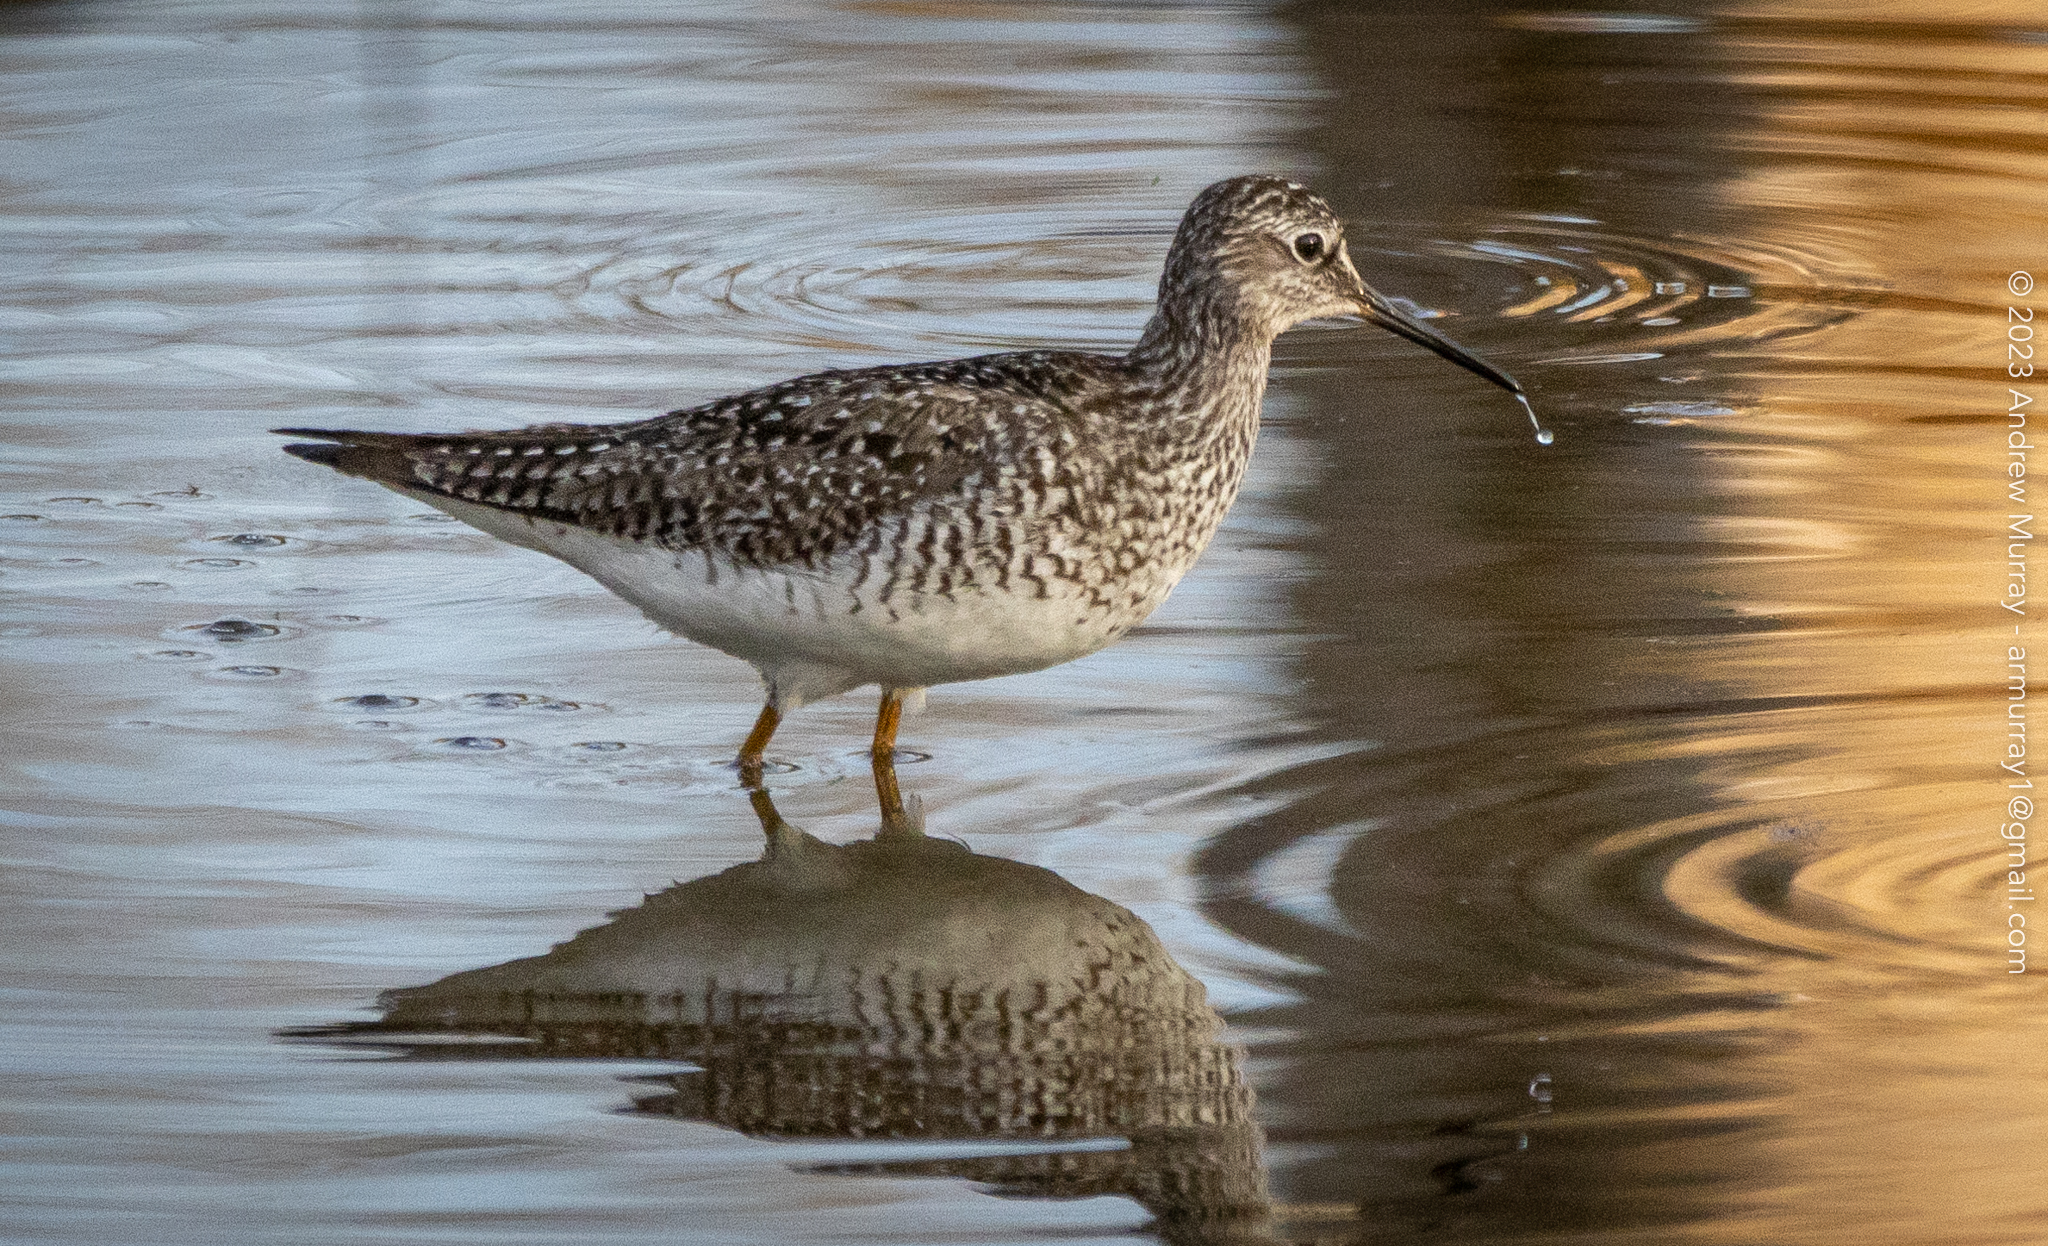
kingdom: Animalia
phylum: Chordata
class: Aves
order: Charadriiformes
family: Scolopacidae
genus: Tringa
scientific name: Tringa flavipes
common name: Lesser yellowlegs
